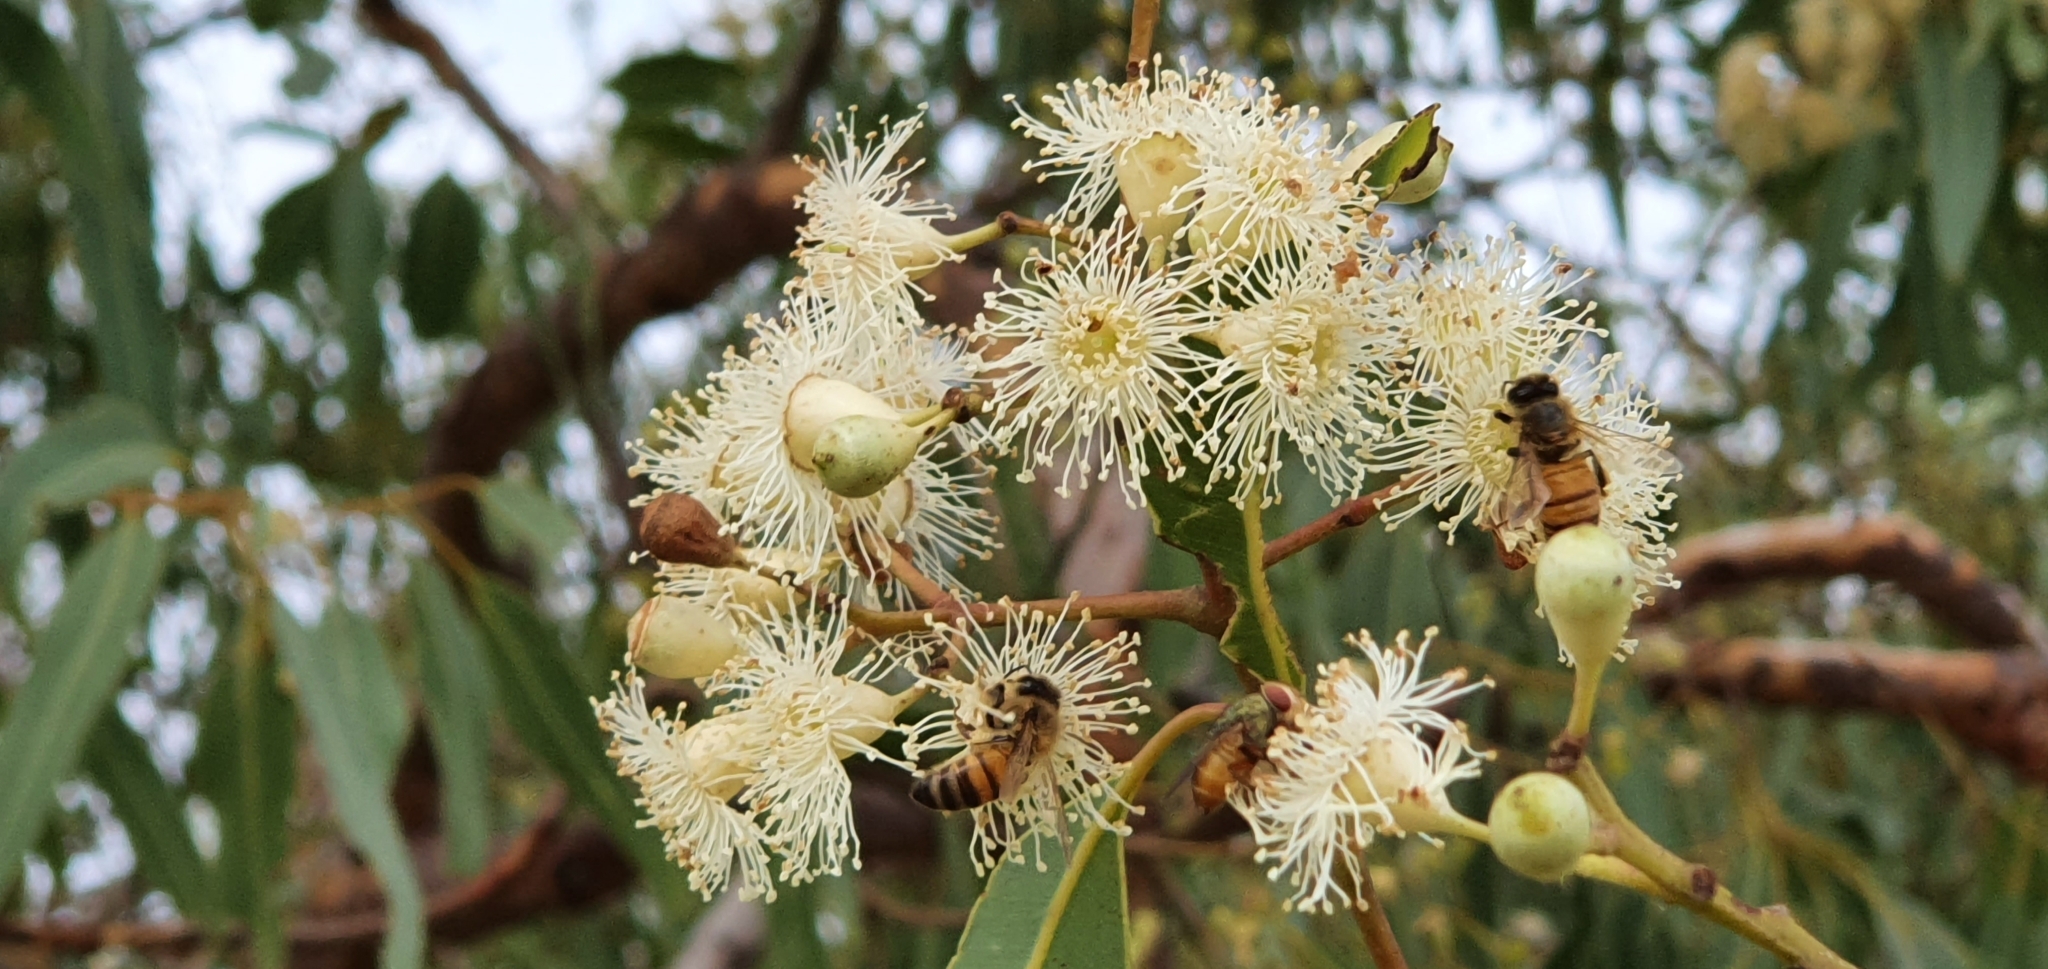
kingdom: Animalia
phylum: Arthropoda
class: Insecta
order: Hymenoptera
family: Apidae
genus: Apis
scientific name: Apis mellifera
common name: Honey bee
